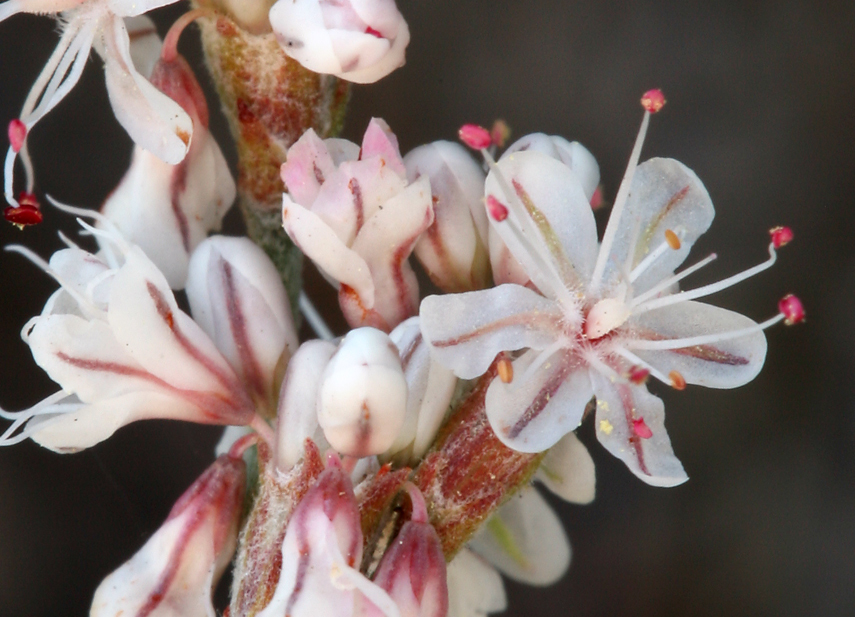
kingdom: Plantae
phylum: Tracheophyta
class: Magnoliopsida
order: Caryophyllales
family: Polygonaceae
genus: Eriogonum
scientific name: Eriogonum wrightii
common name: Bastard-sage
